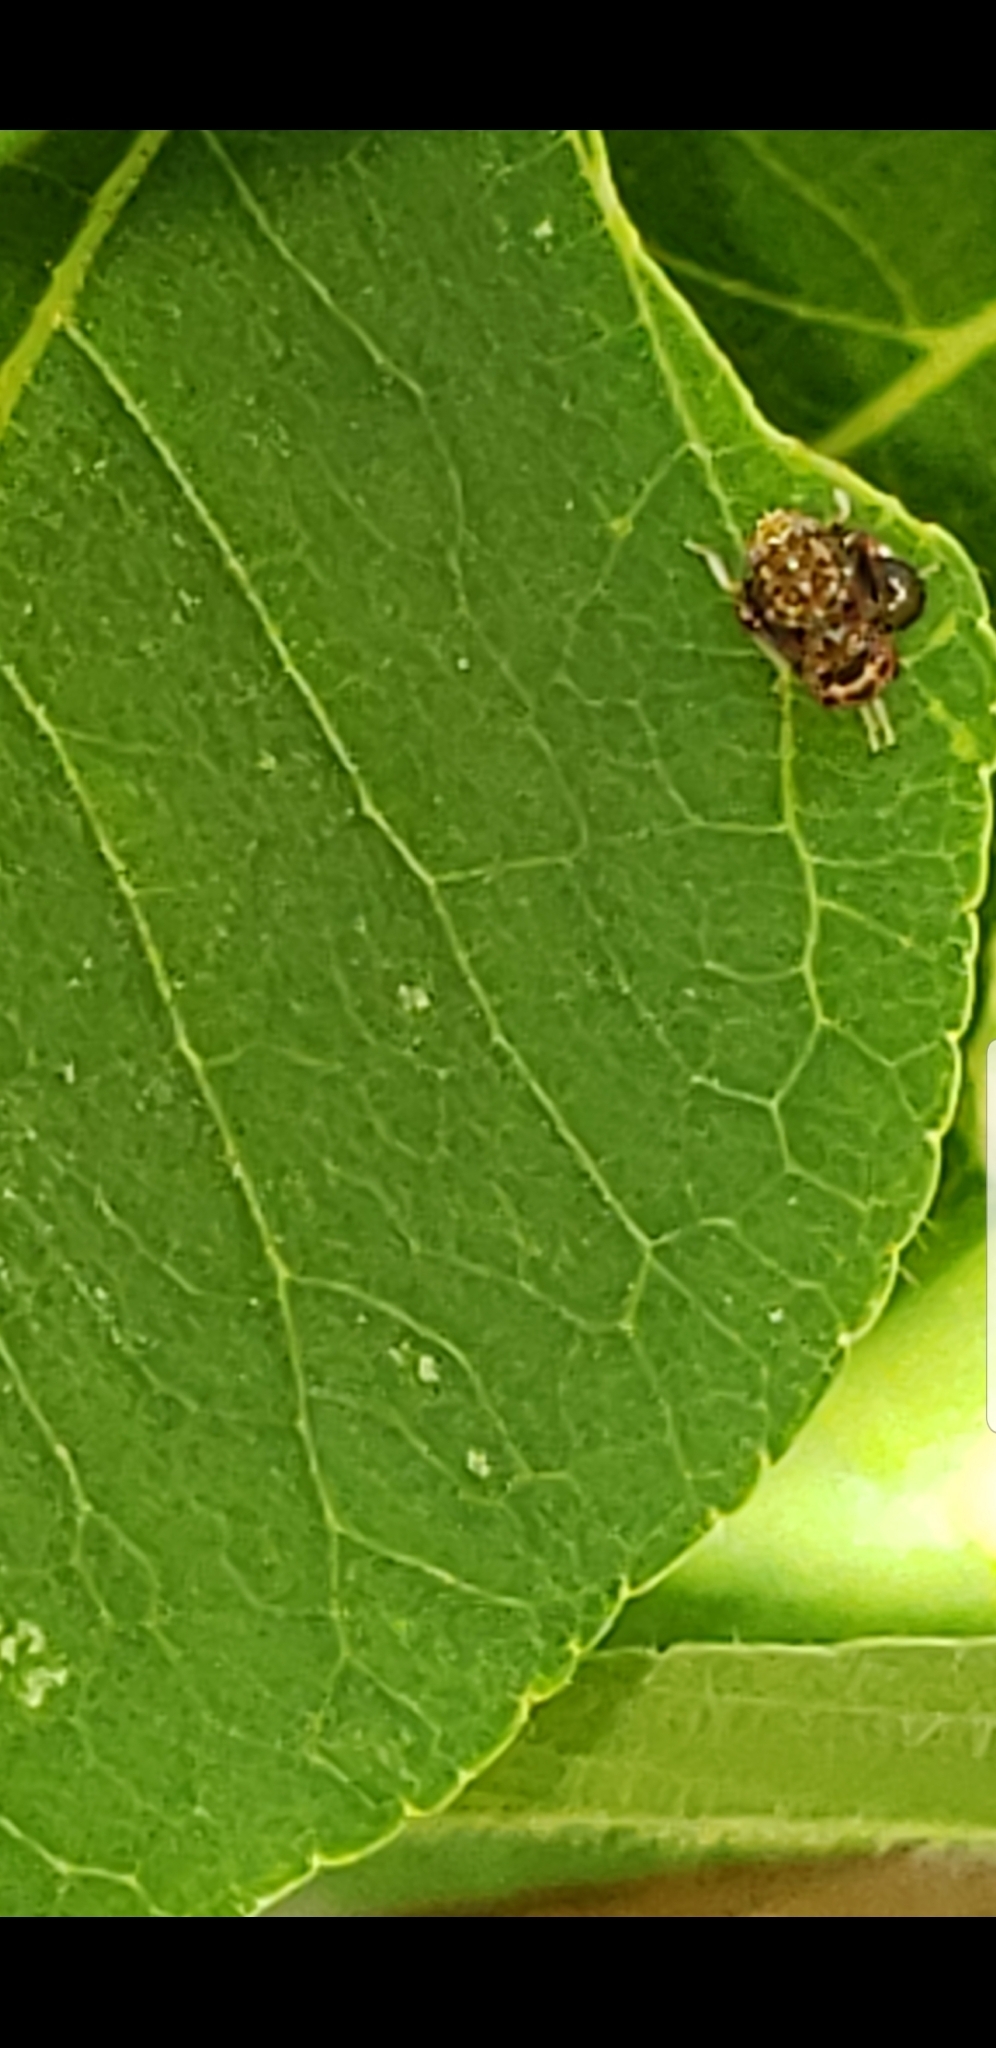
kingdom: Animalia
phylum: Arthropoda
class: Insecta
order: Hemiptera
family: Cicadellidae
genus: Orientus
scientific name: Orientus ishidae
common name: Japanese leafhopper
